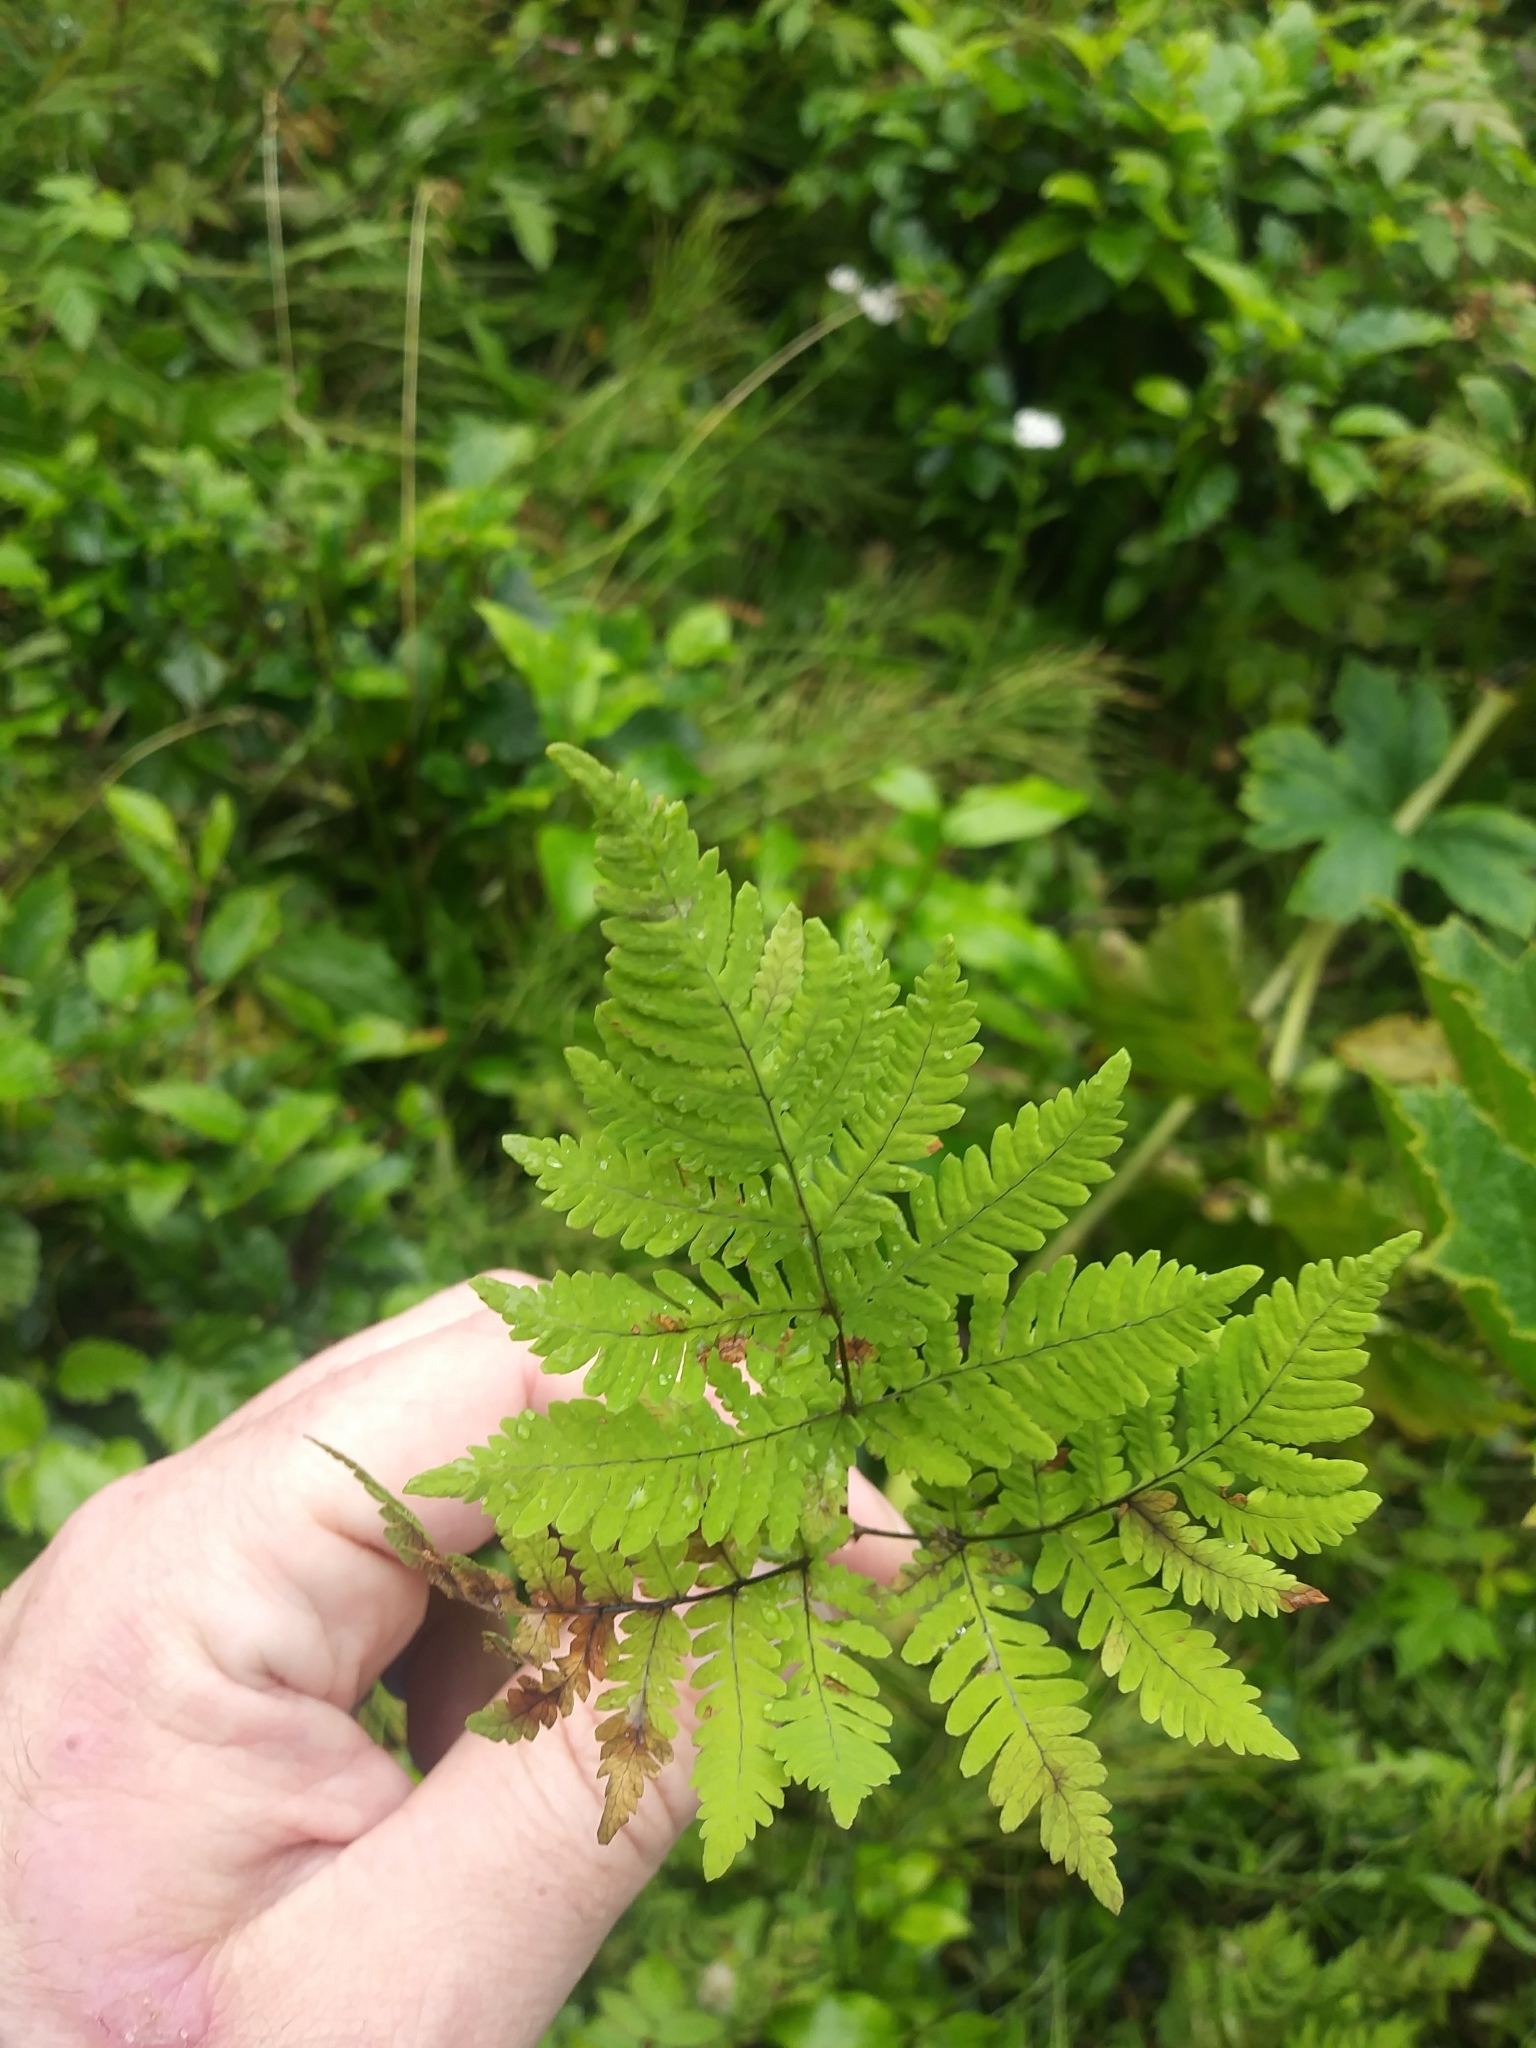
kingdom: Plantae
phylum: Tracheophyta
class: Polypodiopsida
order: Polypodiales
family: Cystopteridaceae
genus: Gymnocarpium
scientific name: Gymnocarpium dryopteris
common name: Oak fern
